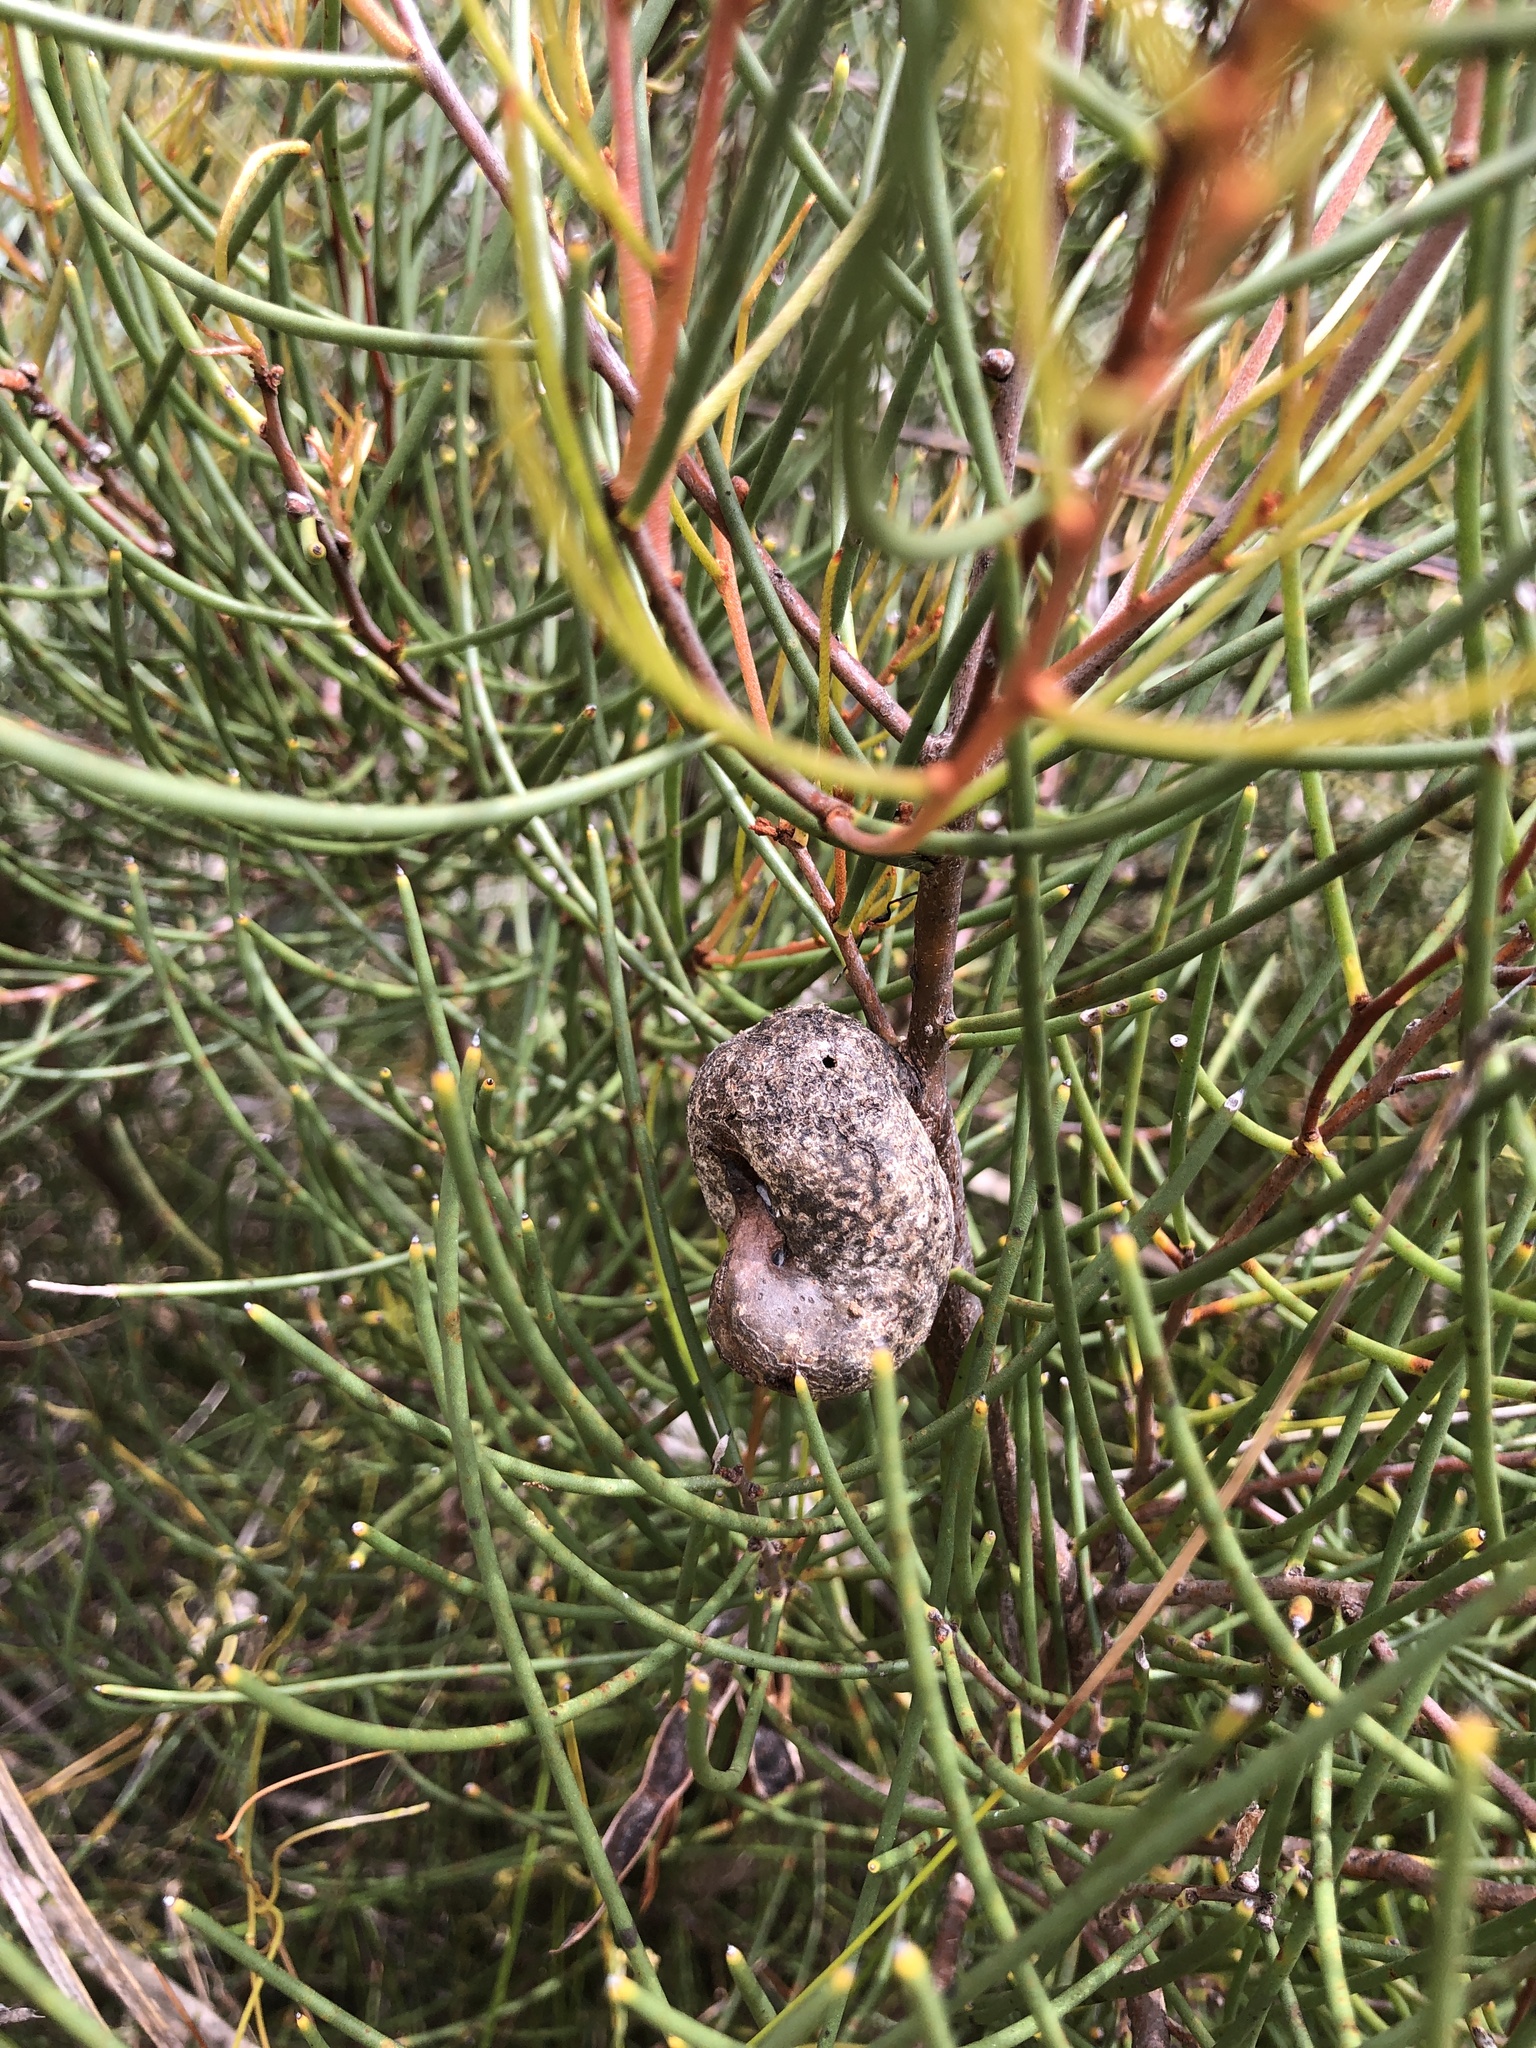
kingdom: Plantae
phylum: Tracheophyta
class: Magnoliopsida
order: Proteales
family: Proteaceae
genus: Hakea
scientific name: Hakea rostrata
